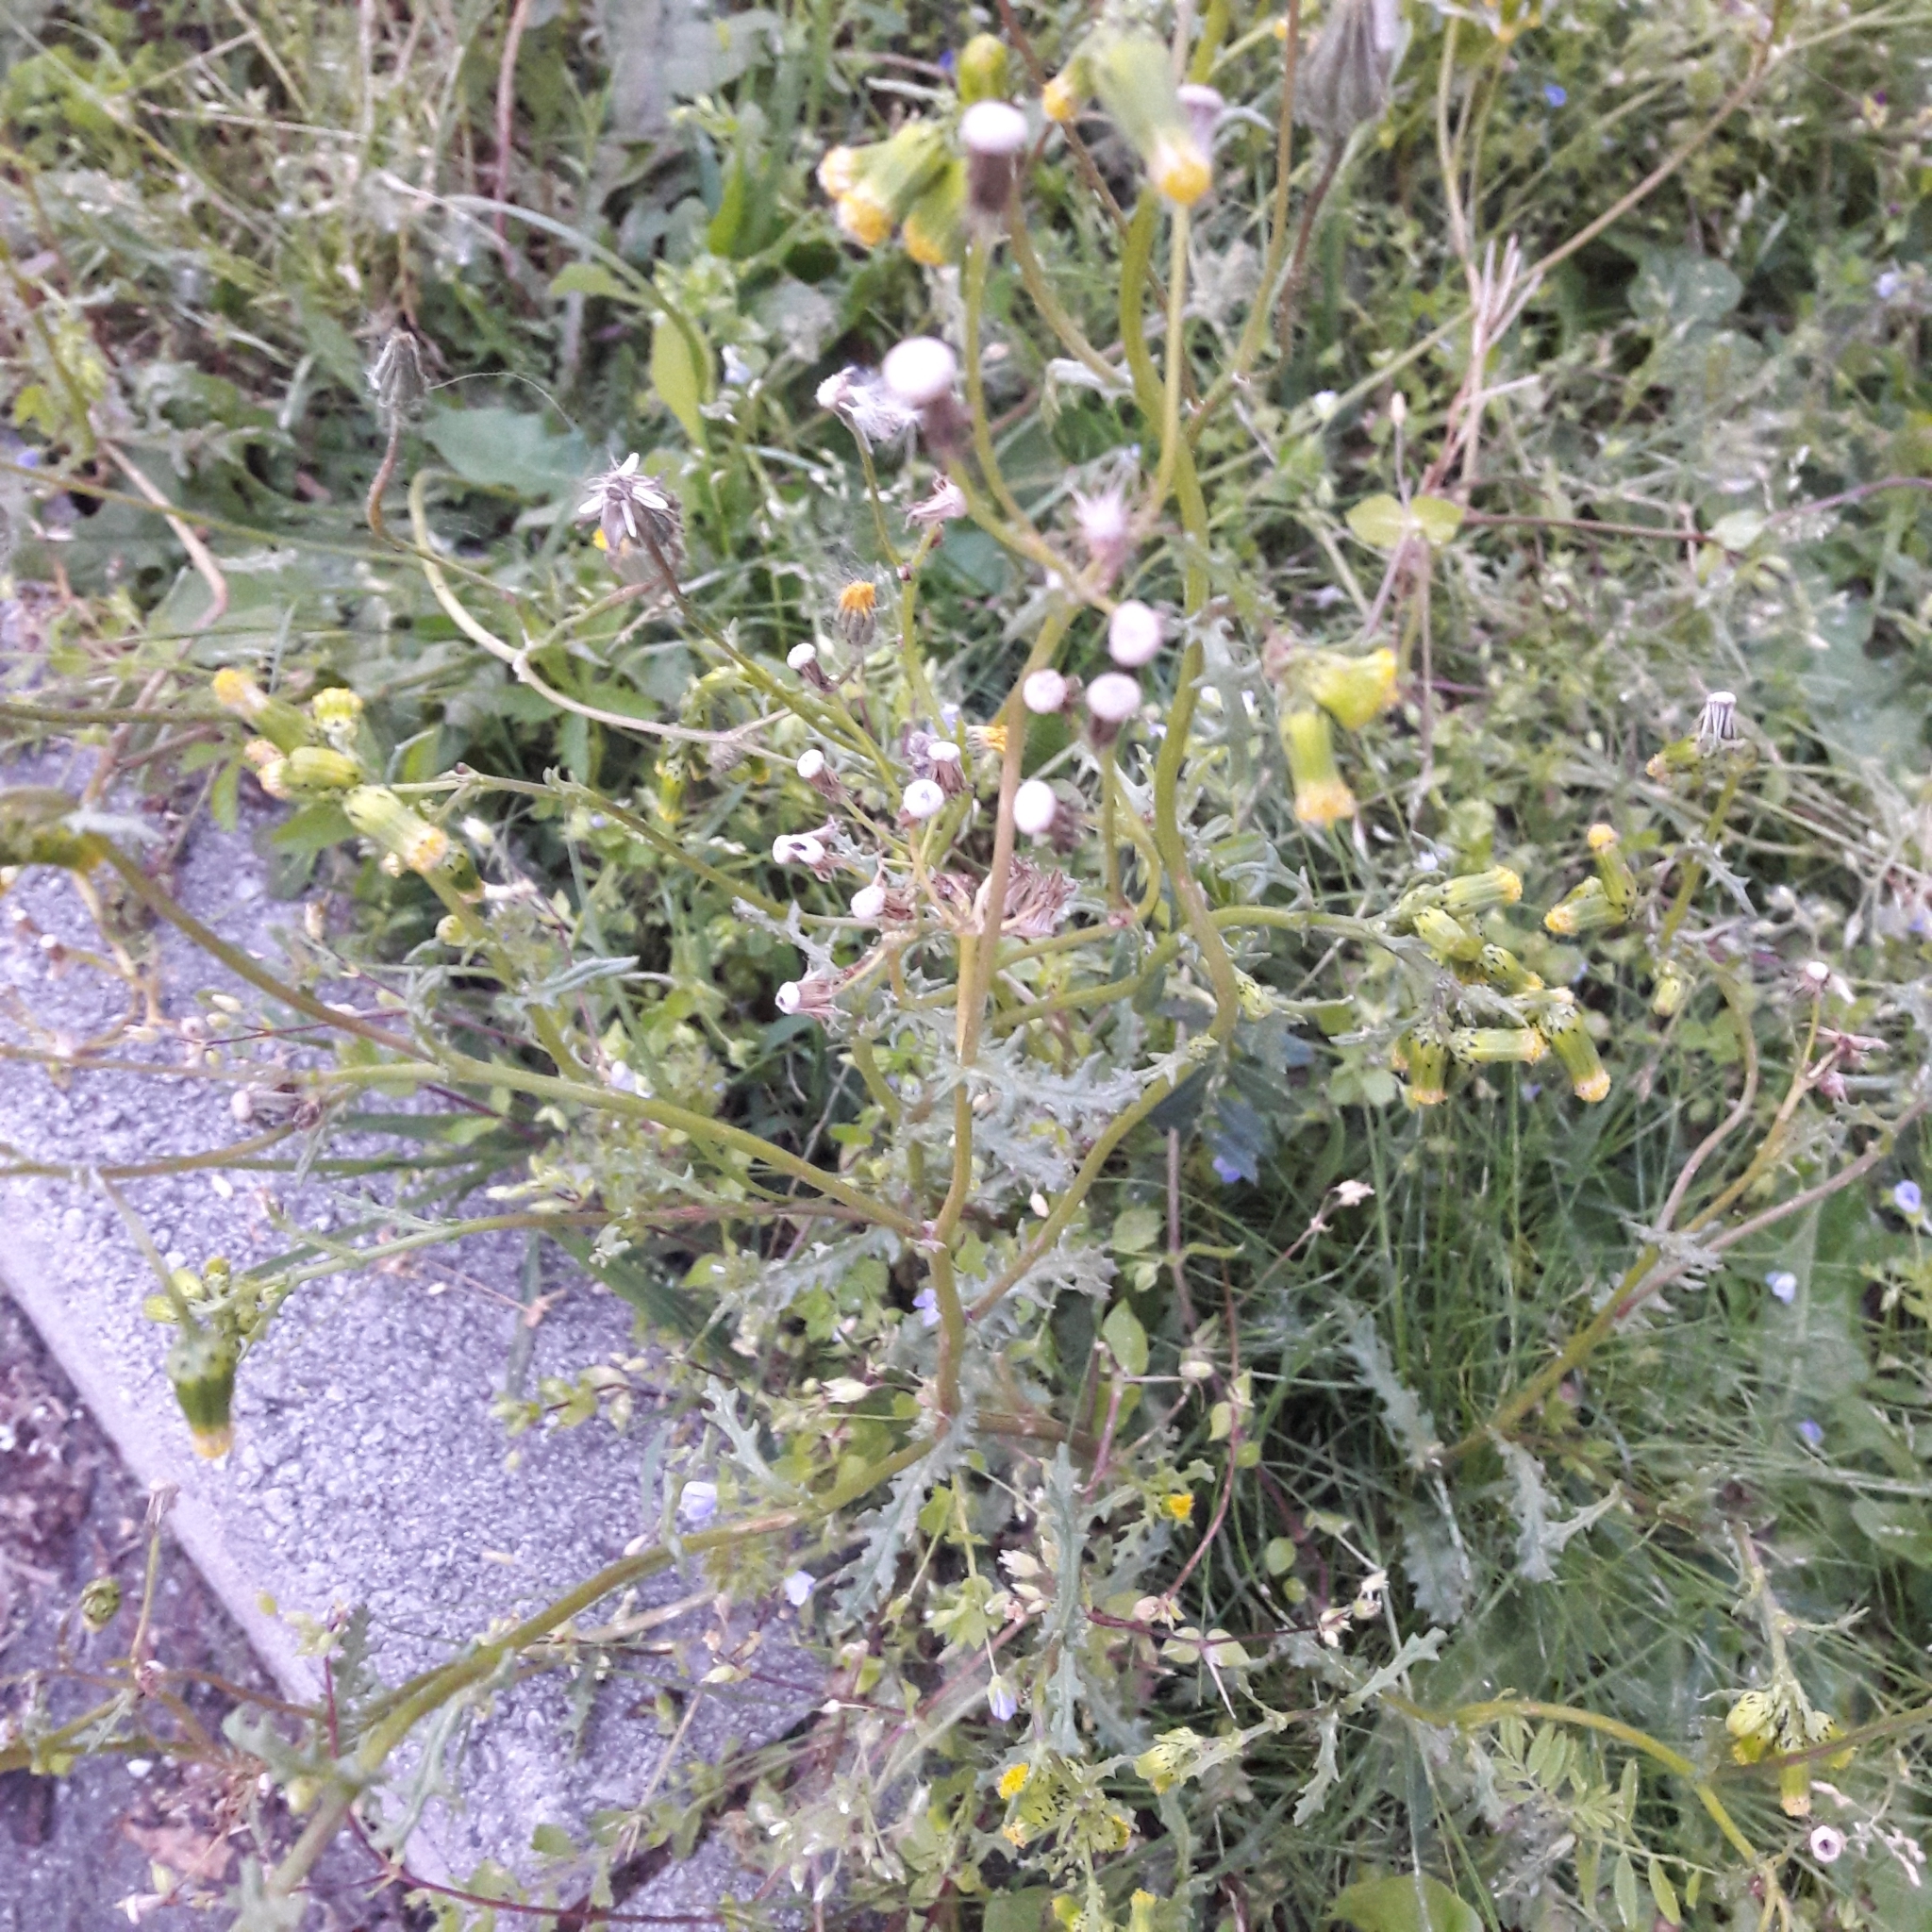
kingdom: Plantae
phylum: Tracheophyta
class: Magnoliopsida
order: Asterales
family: Asteraceae
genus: Senecio
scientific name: Senecio vulgaris
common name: Old-man-in-the-spring
